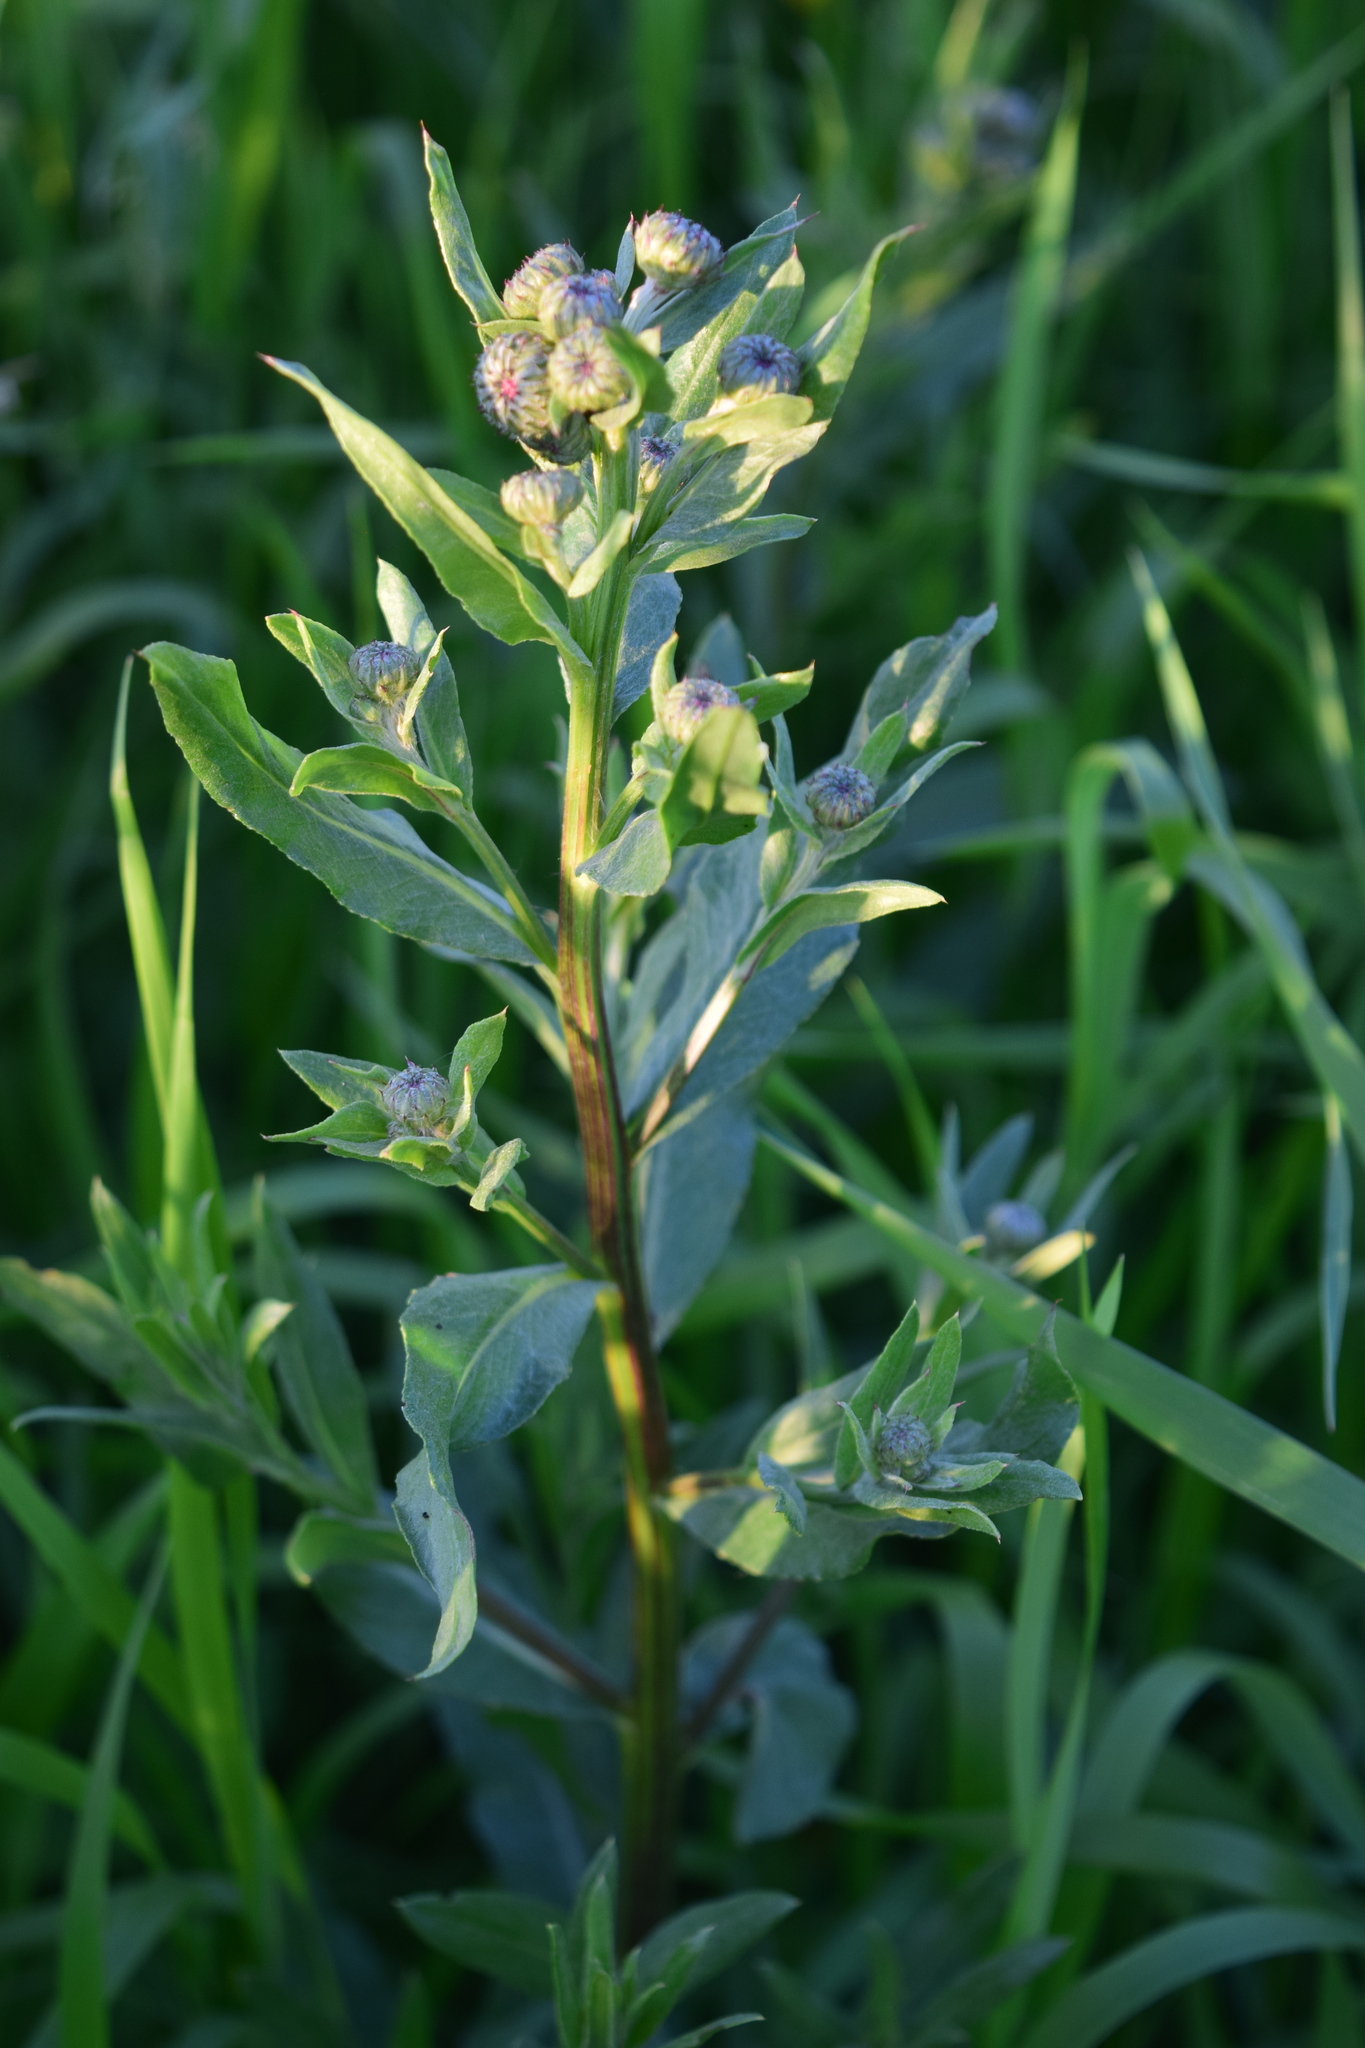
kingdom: Plantae
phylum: Tracheophyta
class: Magnoliopsida
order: Asterales
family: Asteraceae
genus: Cirsium
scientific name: Cirsium arvense
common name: Creeping thistle
